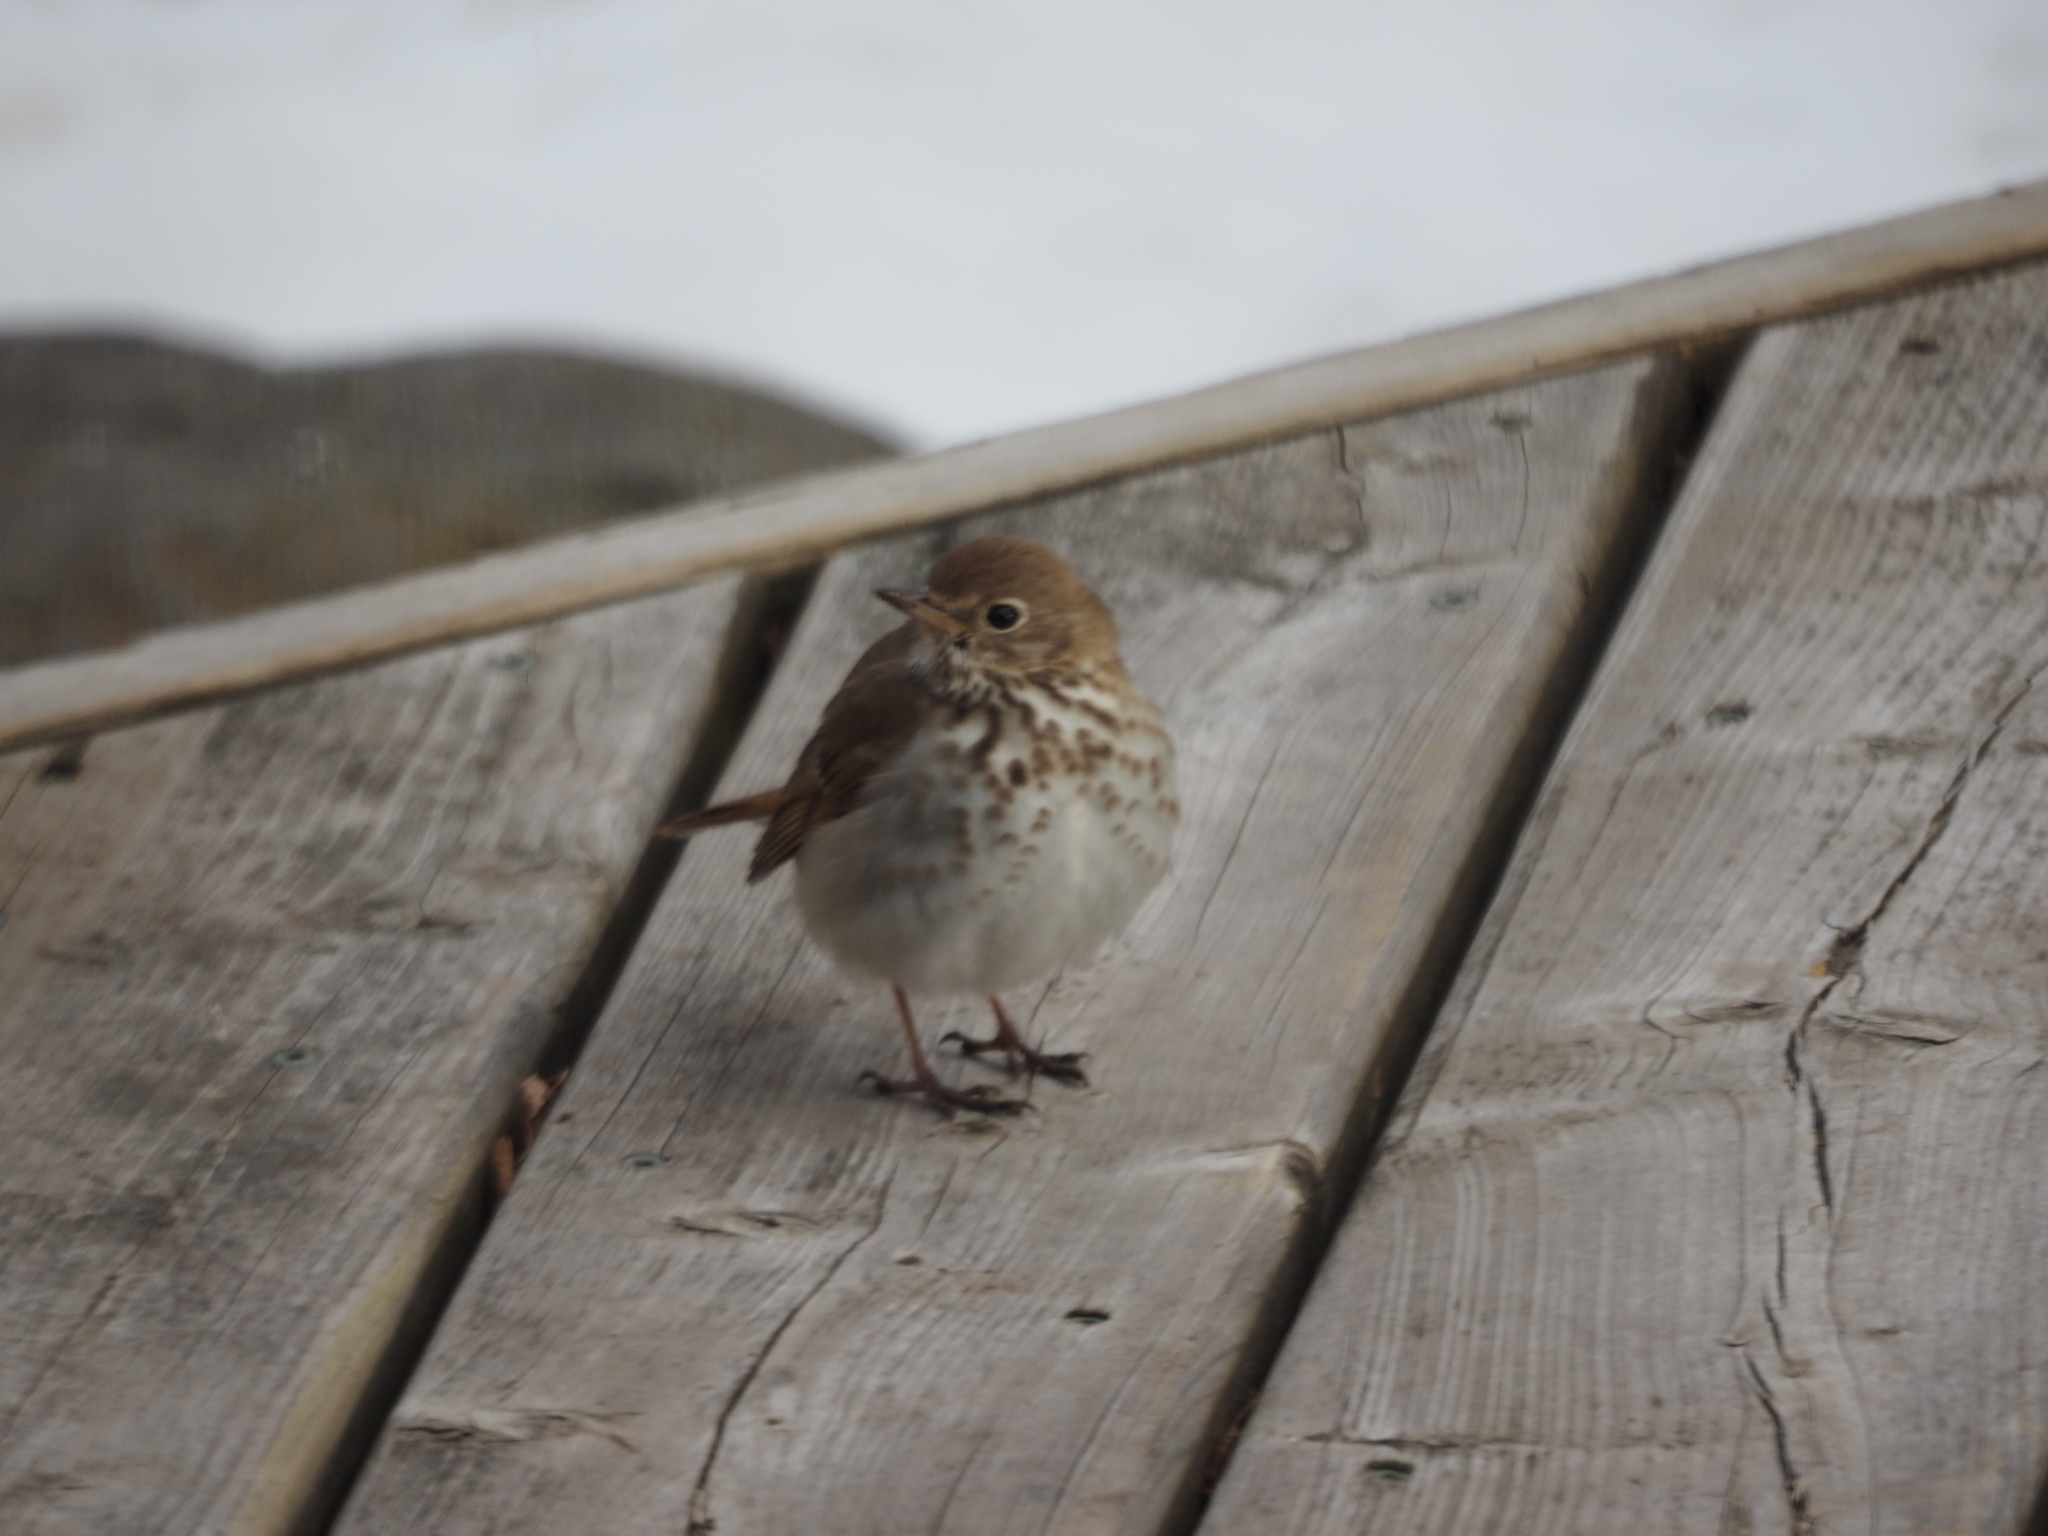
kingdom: Animalia
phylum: Chordata
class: Aves
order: Passeriformes
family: Turdidae
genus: Catharus
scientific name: Catharus guttatus
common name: Hermit thrush
